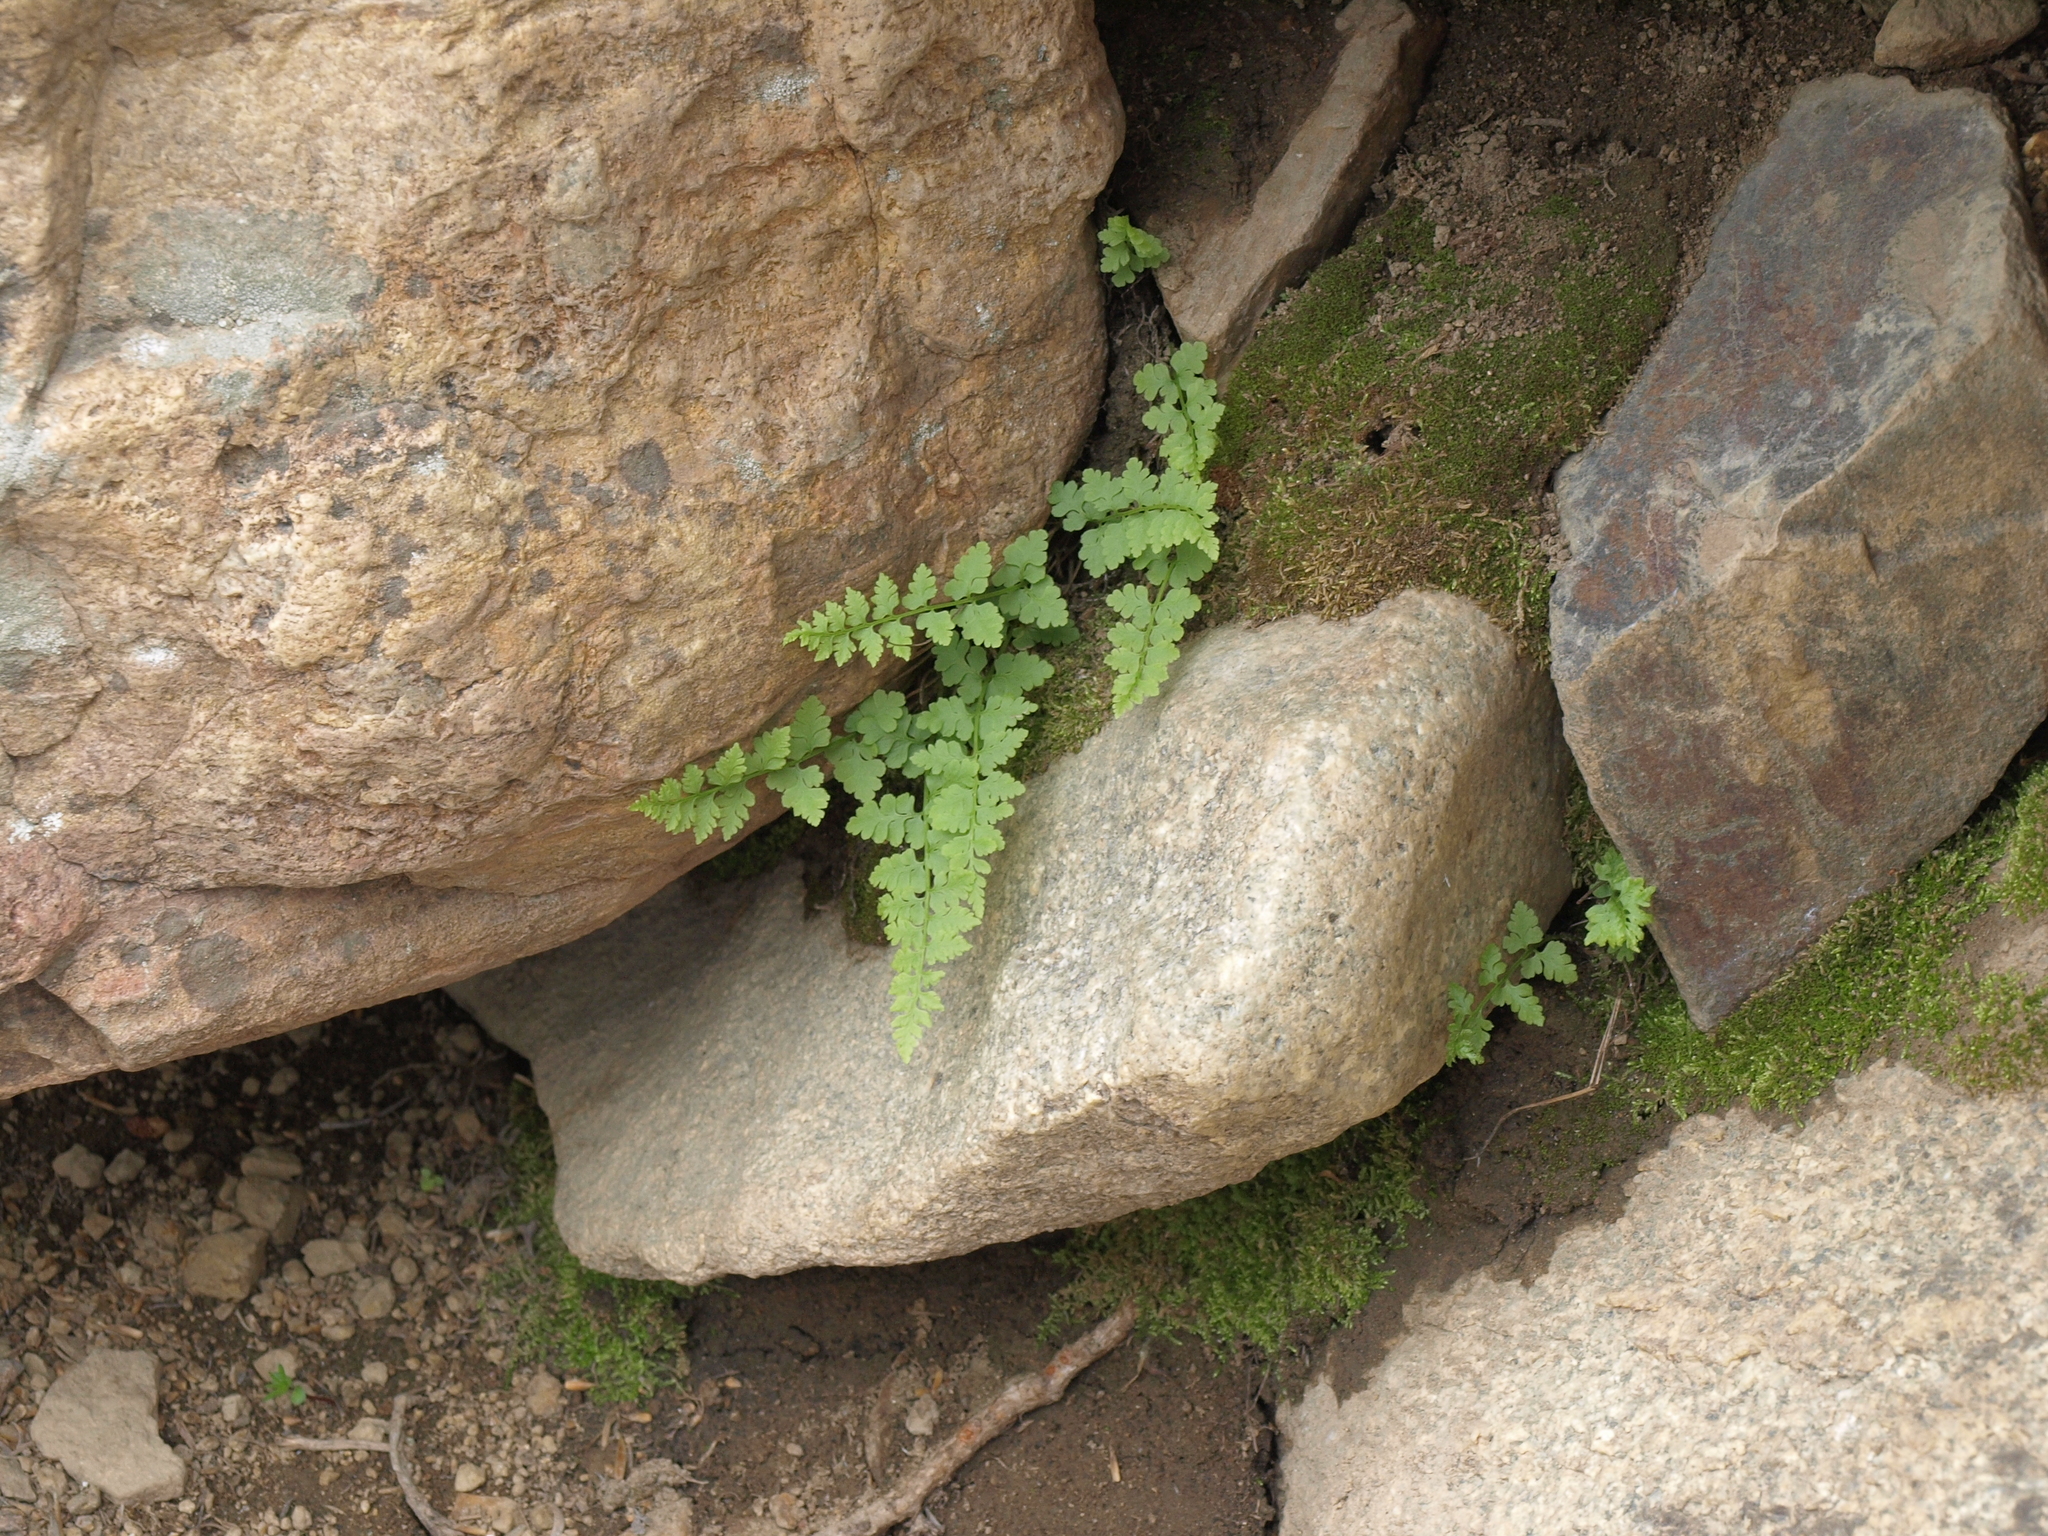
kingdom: Plantae
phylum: Tracheophyta
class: Polypodiopsida
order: Polypodiales
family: Cystopteridaceae
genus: Cystopteris
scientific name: Cystopteris fragilis
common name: Brittle bladder fern
